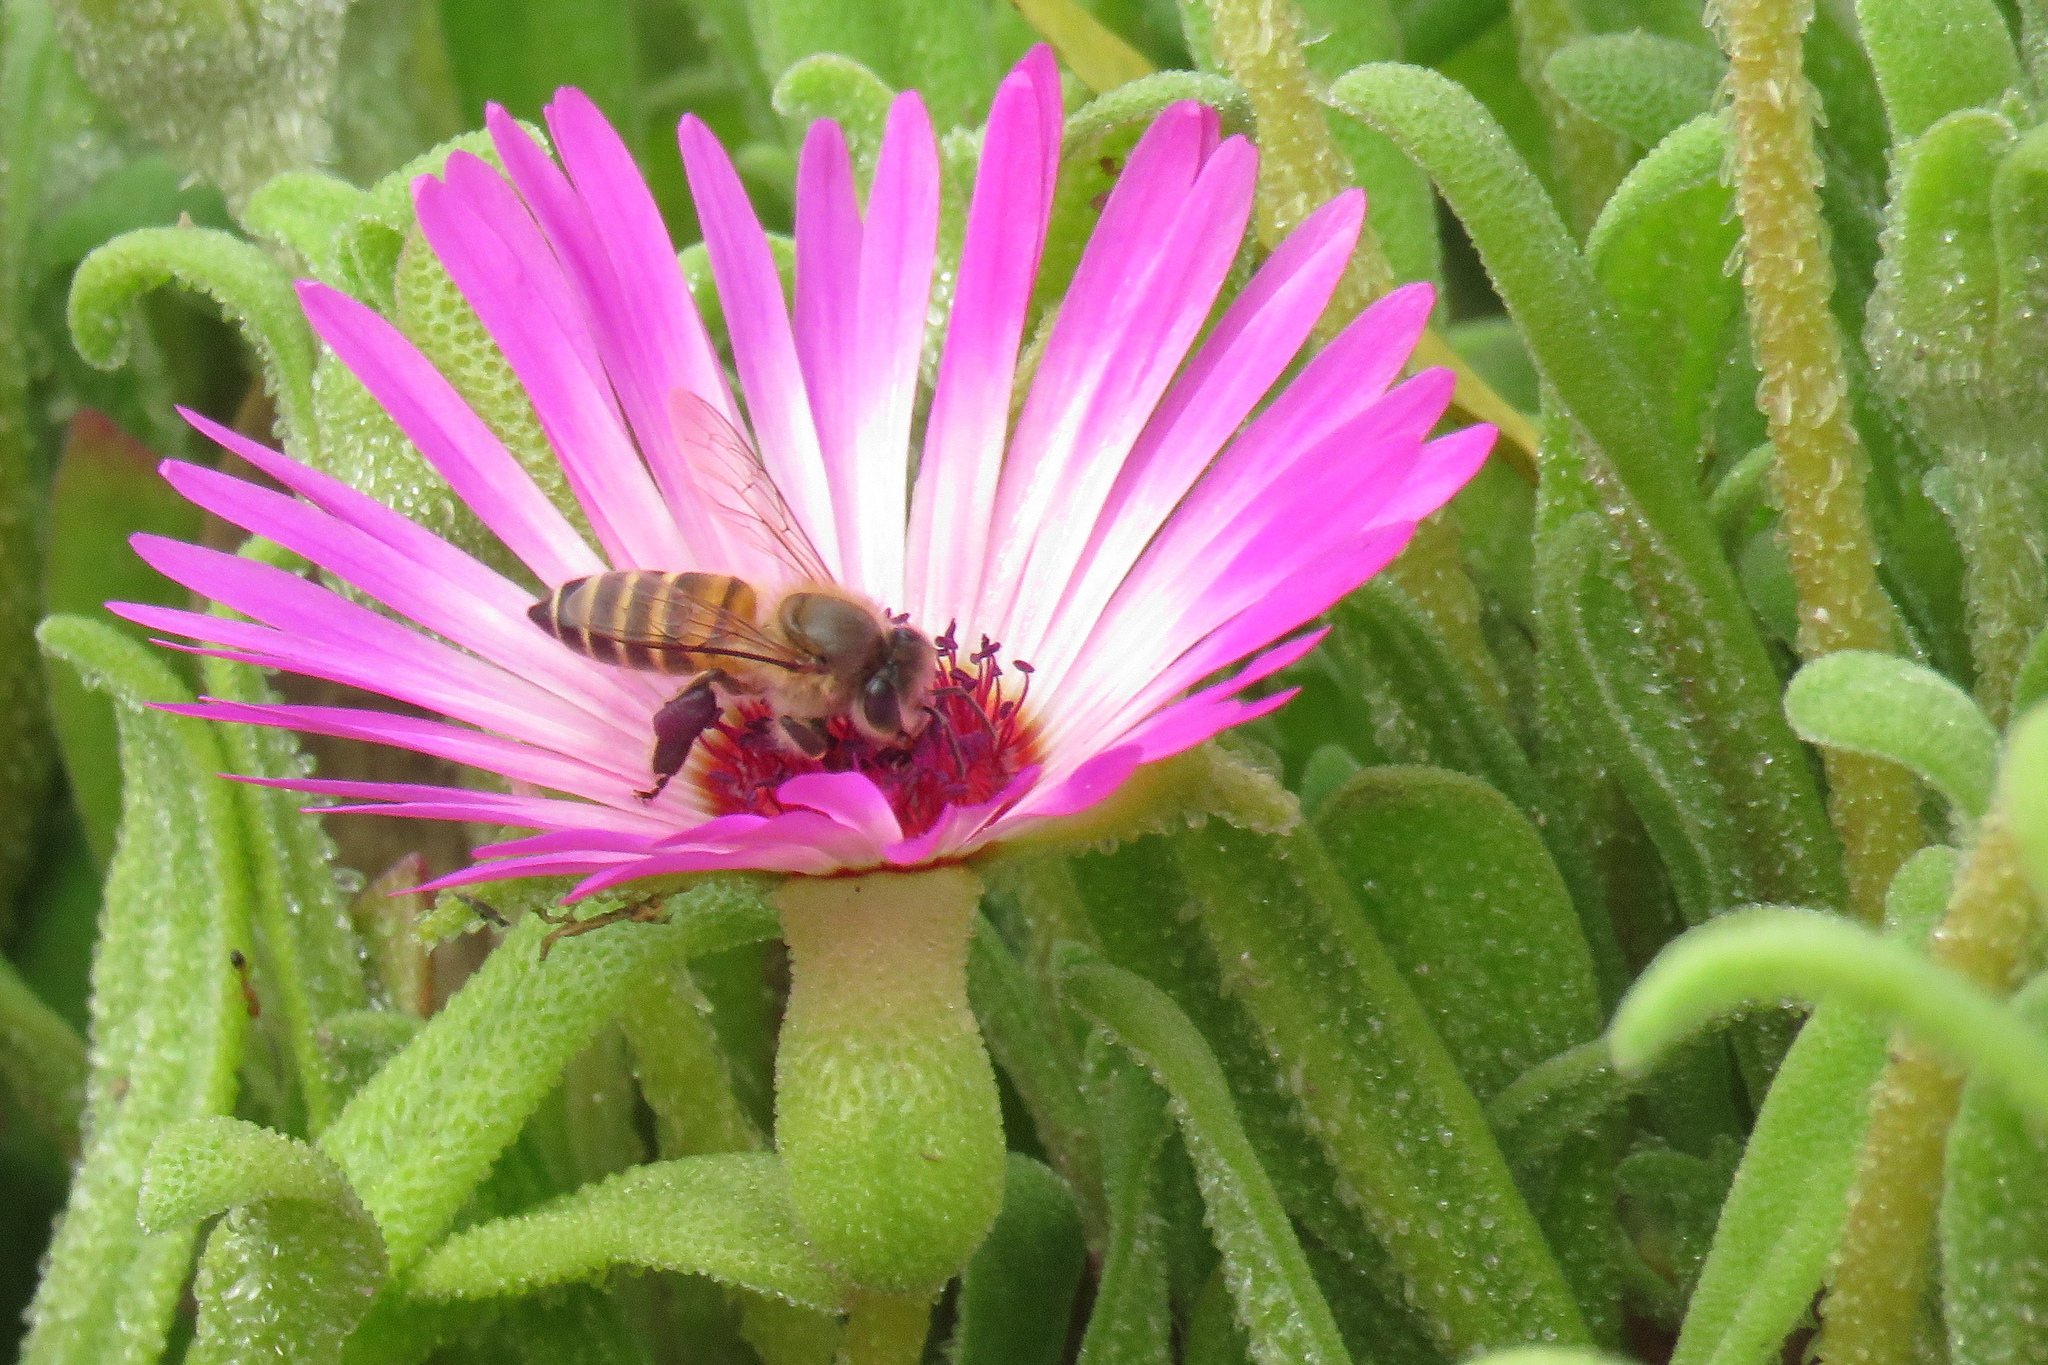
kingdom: Animalia
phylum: Arthropoda
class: Insecta
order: Hymenoptera
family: Apidae
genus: Apis
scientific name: Apis cerana
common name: Honey bee
